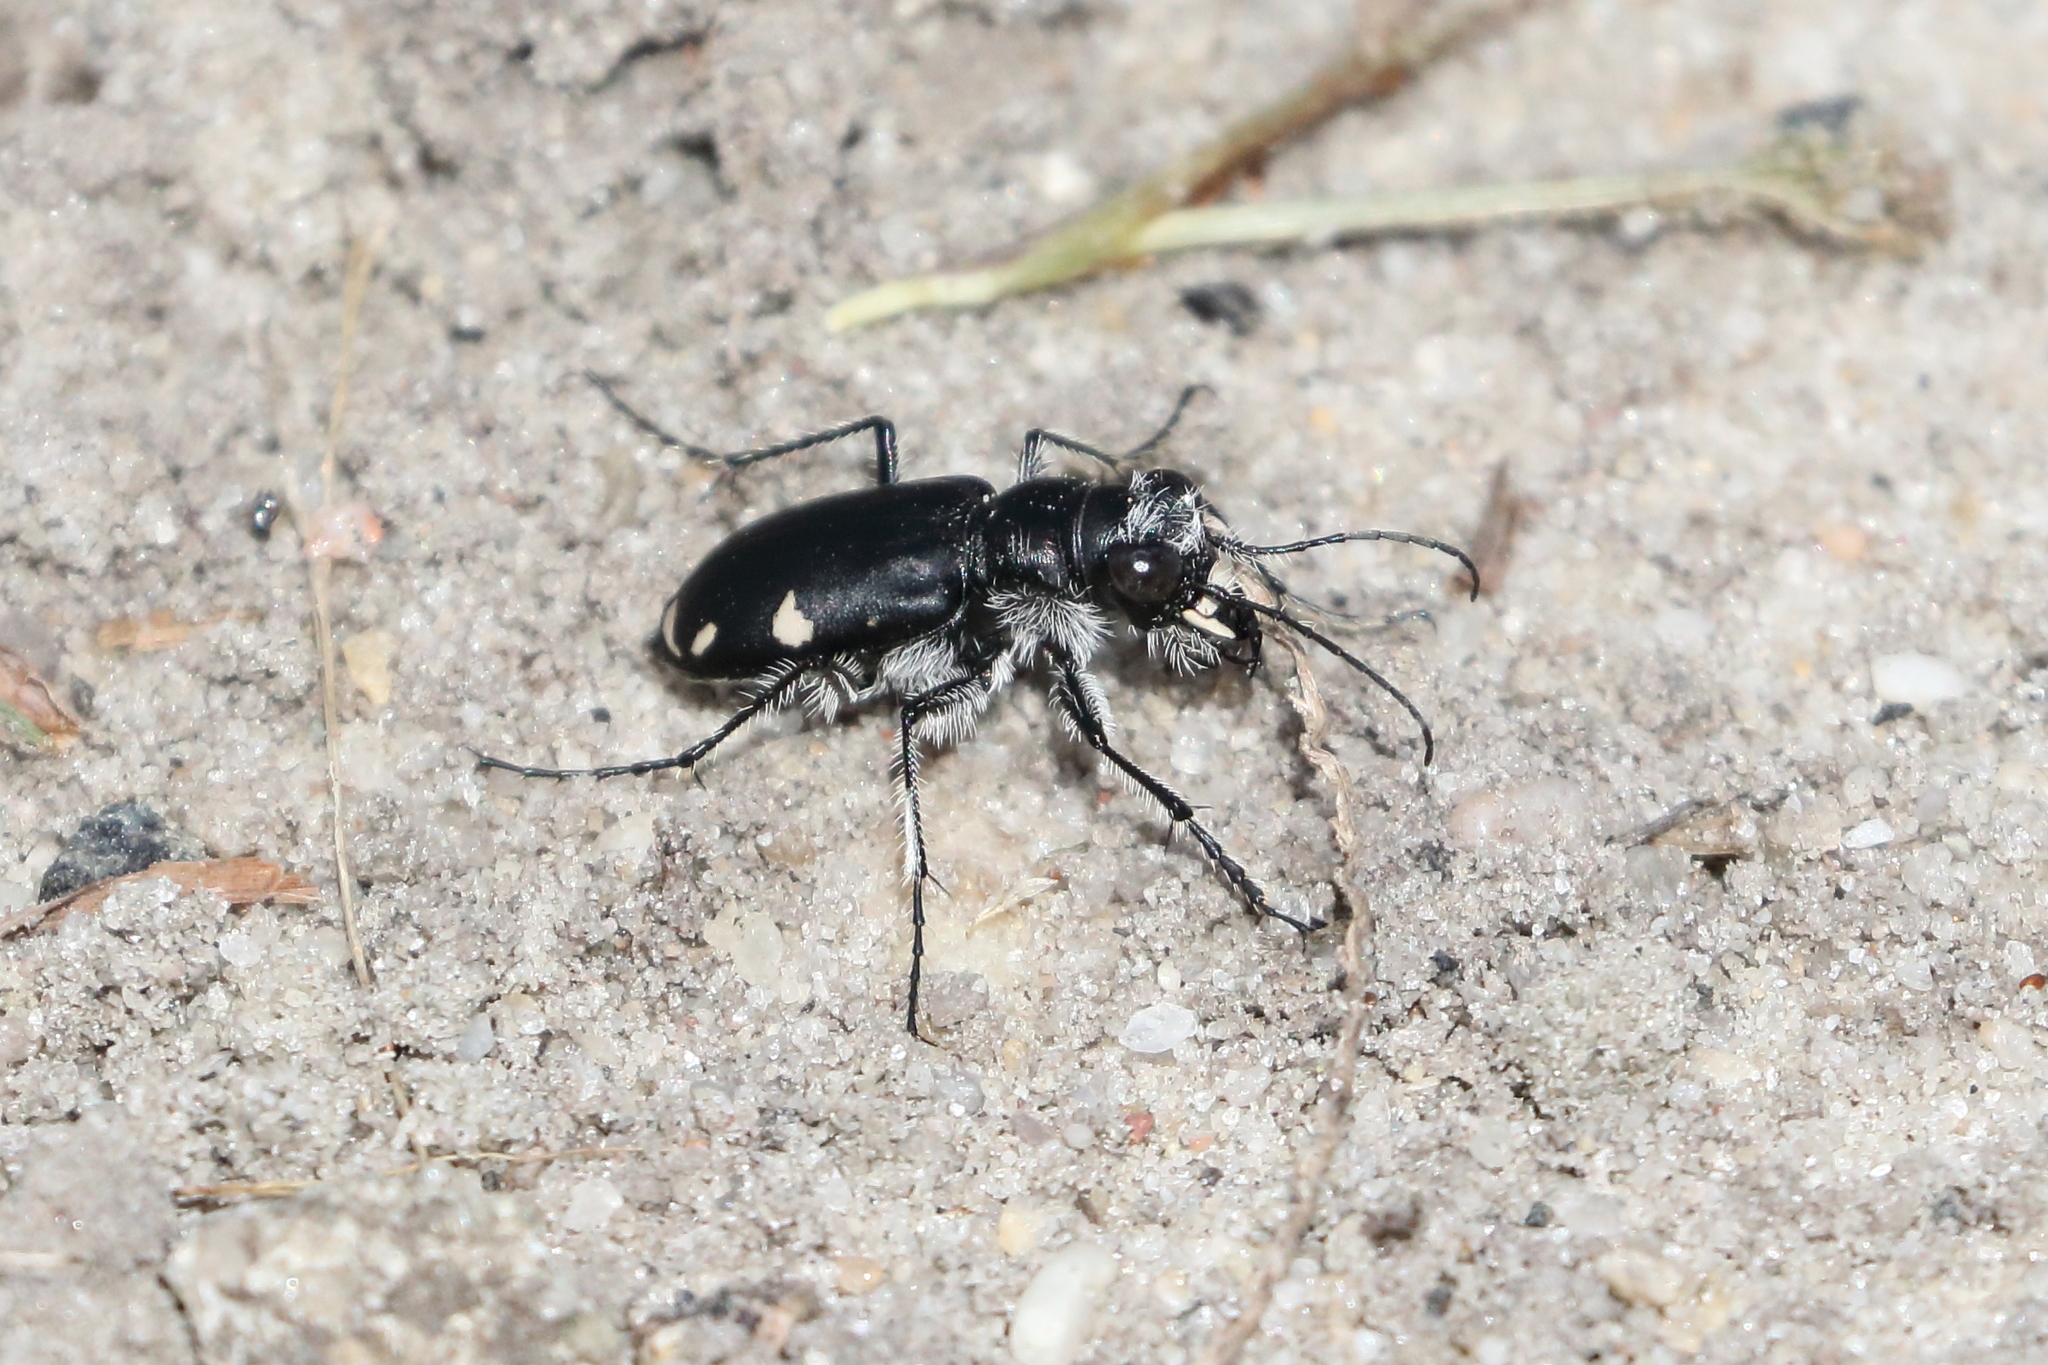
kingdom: Animalia
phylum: Arthropoda
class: Insecta
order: Coleoptera
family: Carabidae
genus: Cicindela
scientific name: Cicindela scutellaris
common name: Festive tiger beetle
